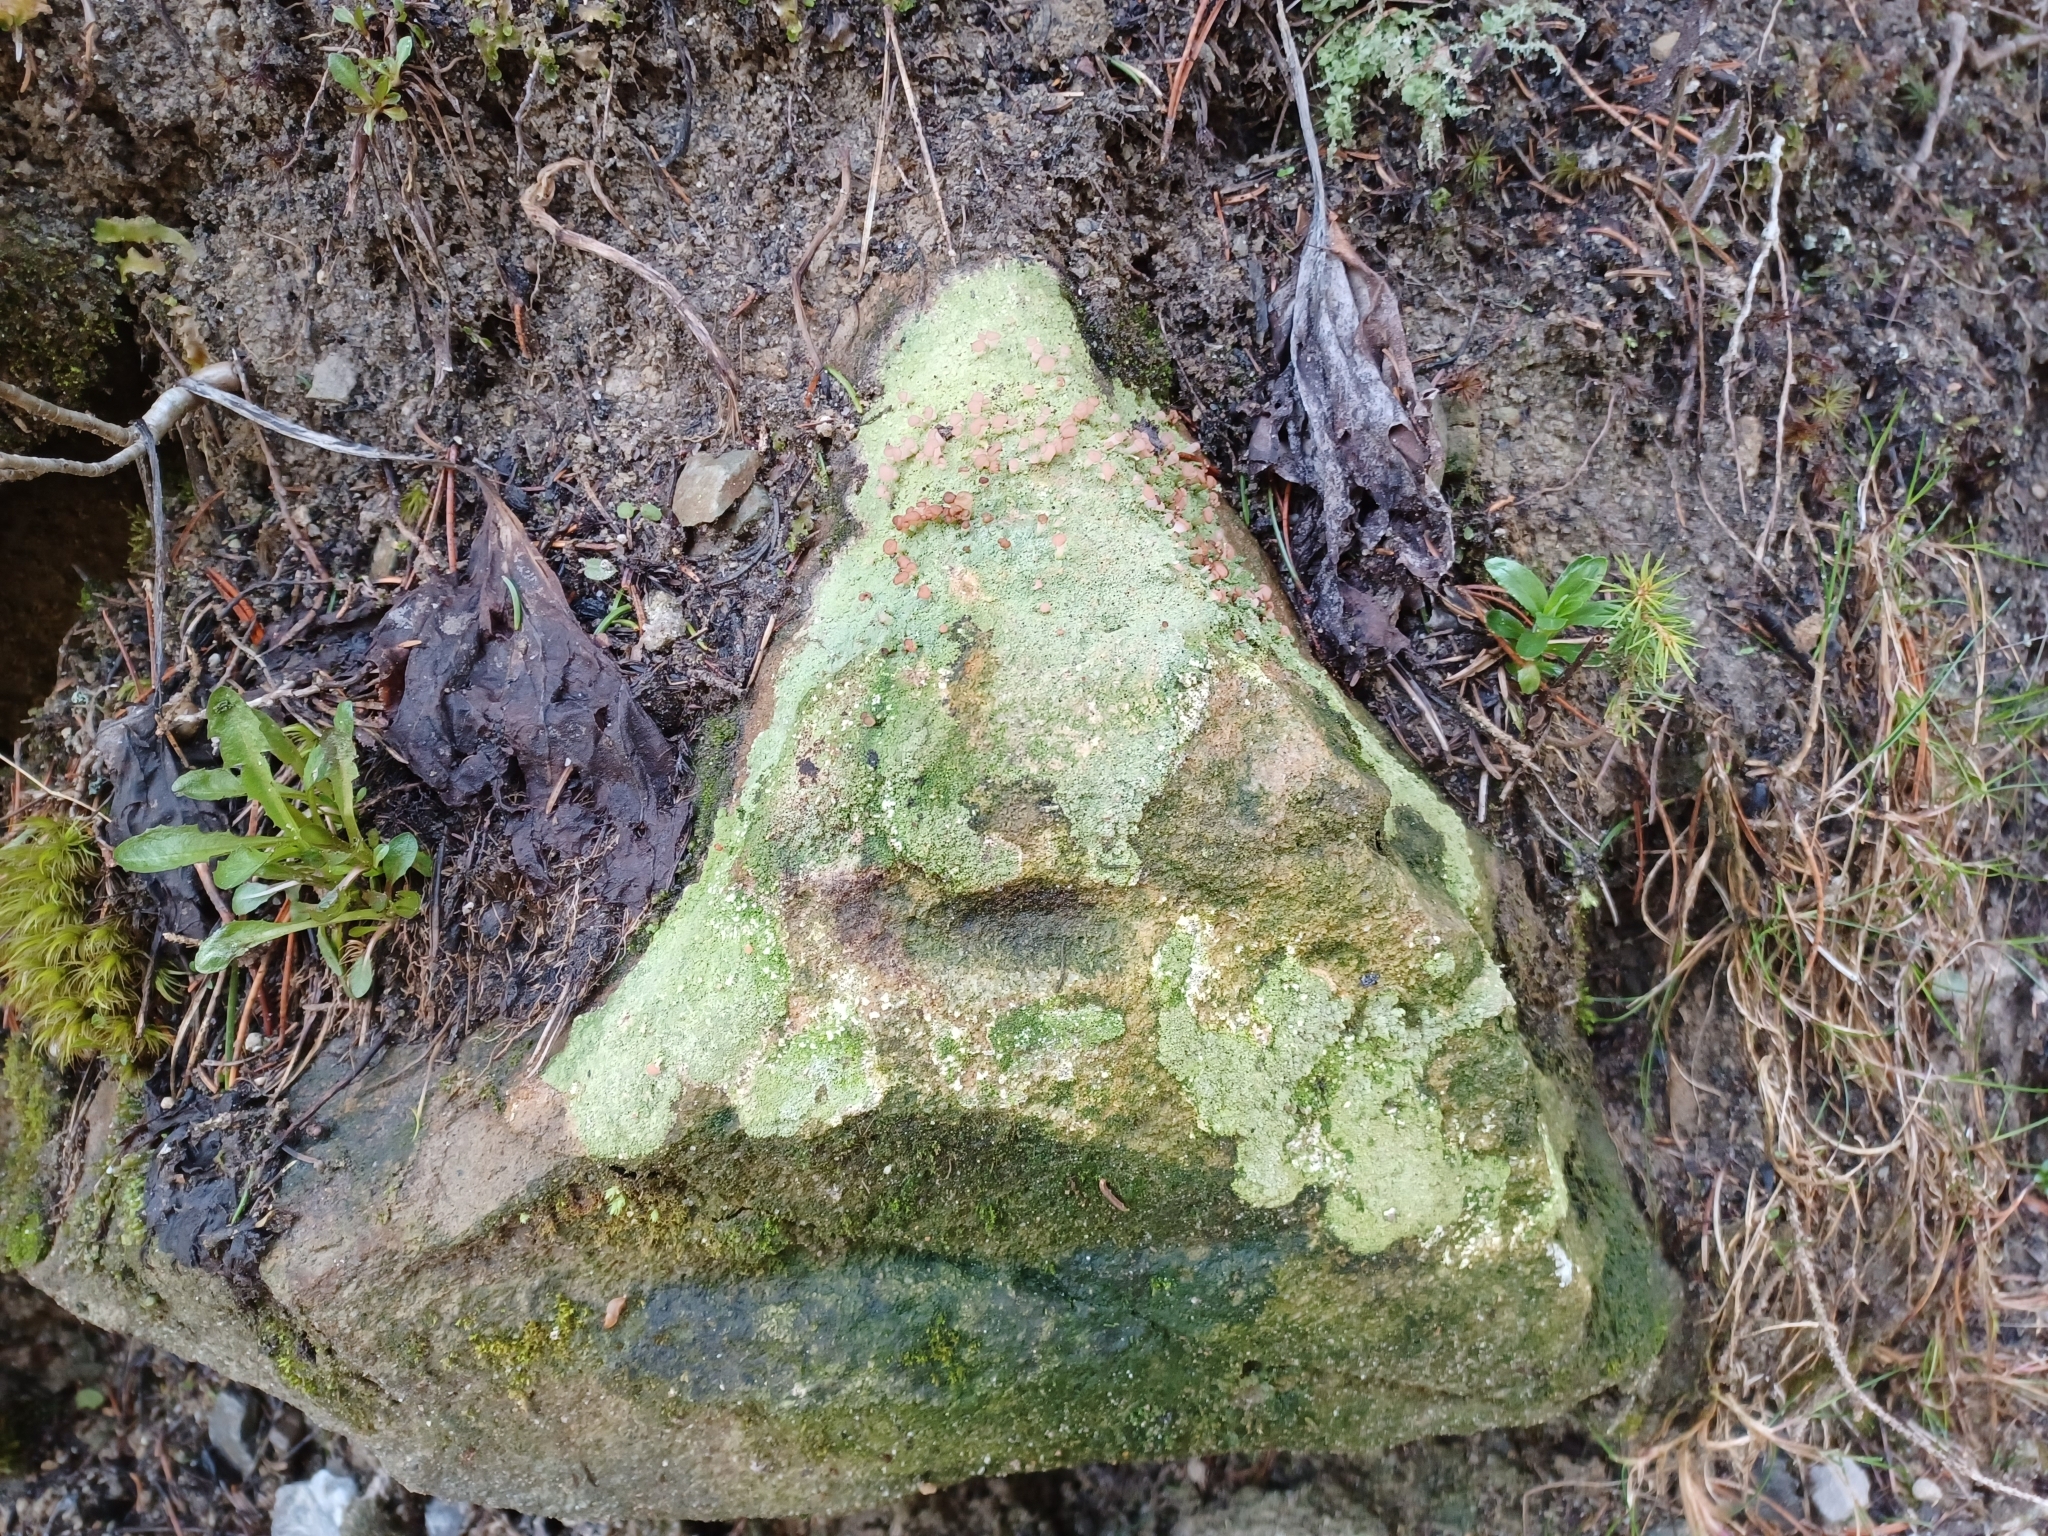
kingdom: Fungi
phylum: Ascomycota
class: Lecanoromycetes
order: Baeomycetales
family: Baeomycetaceae
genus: Baeomyces
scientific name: Baeomyces rufus
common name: Brown beret lichen
